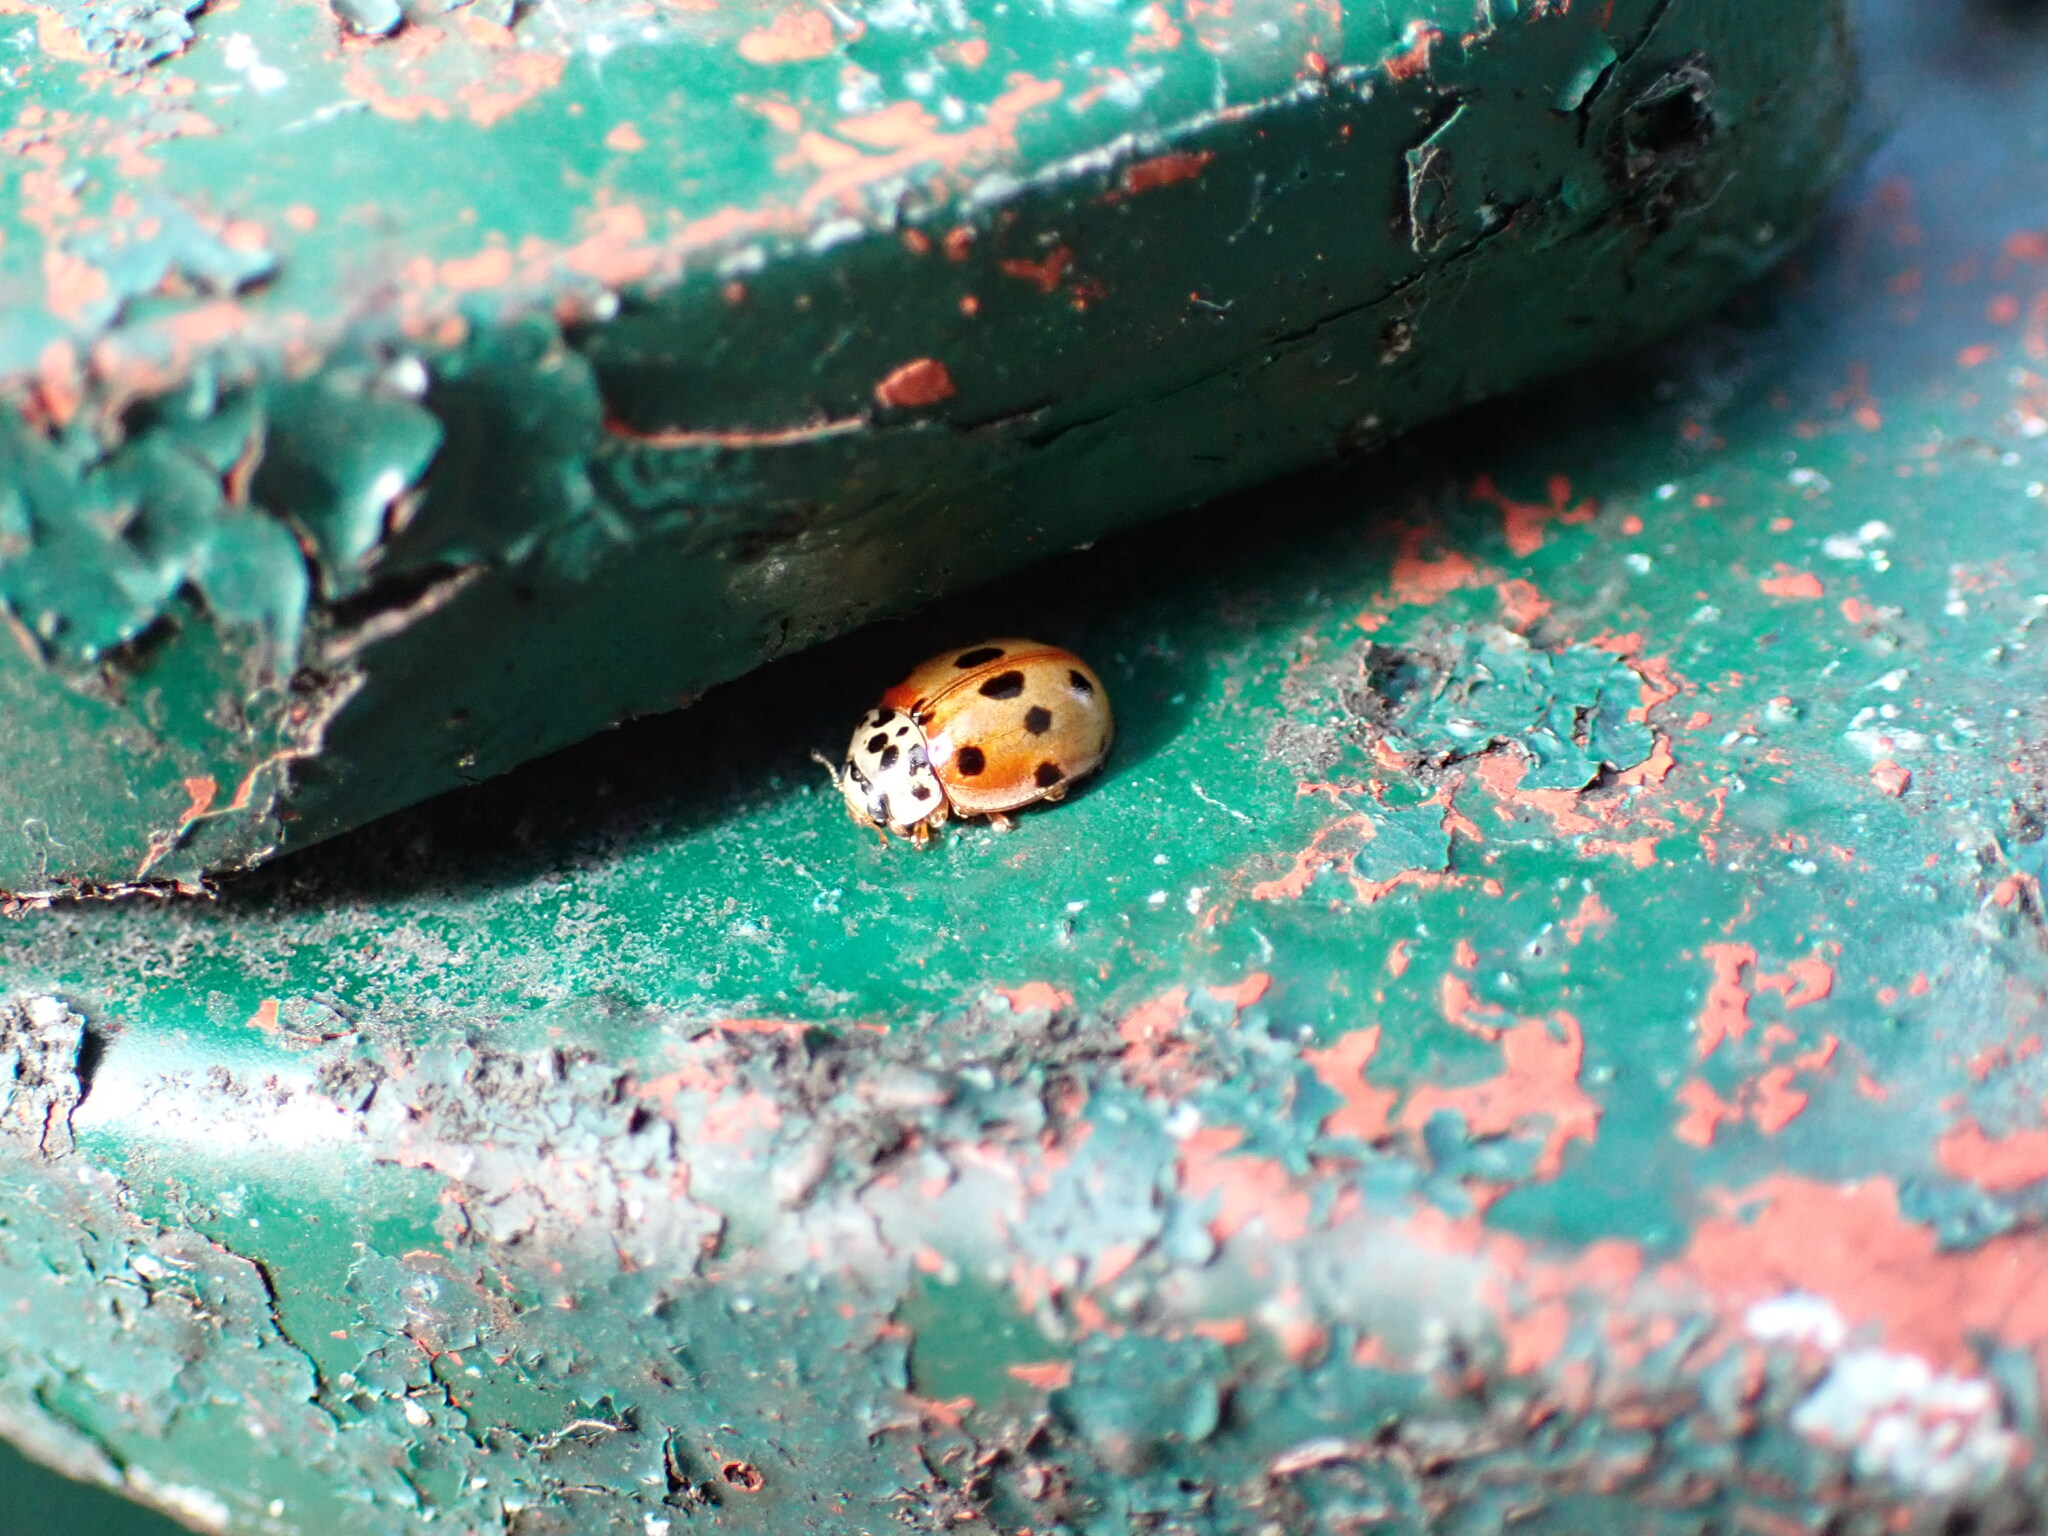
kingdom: Animalia
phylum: Arthropoda
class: Insecta
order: Coleoptera
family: Coccinellidae
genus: Adalia
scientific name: Adalia decempunctata
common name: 10-spot ladybird
